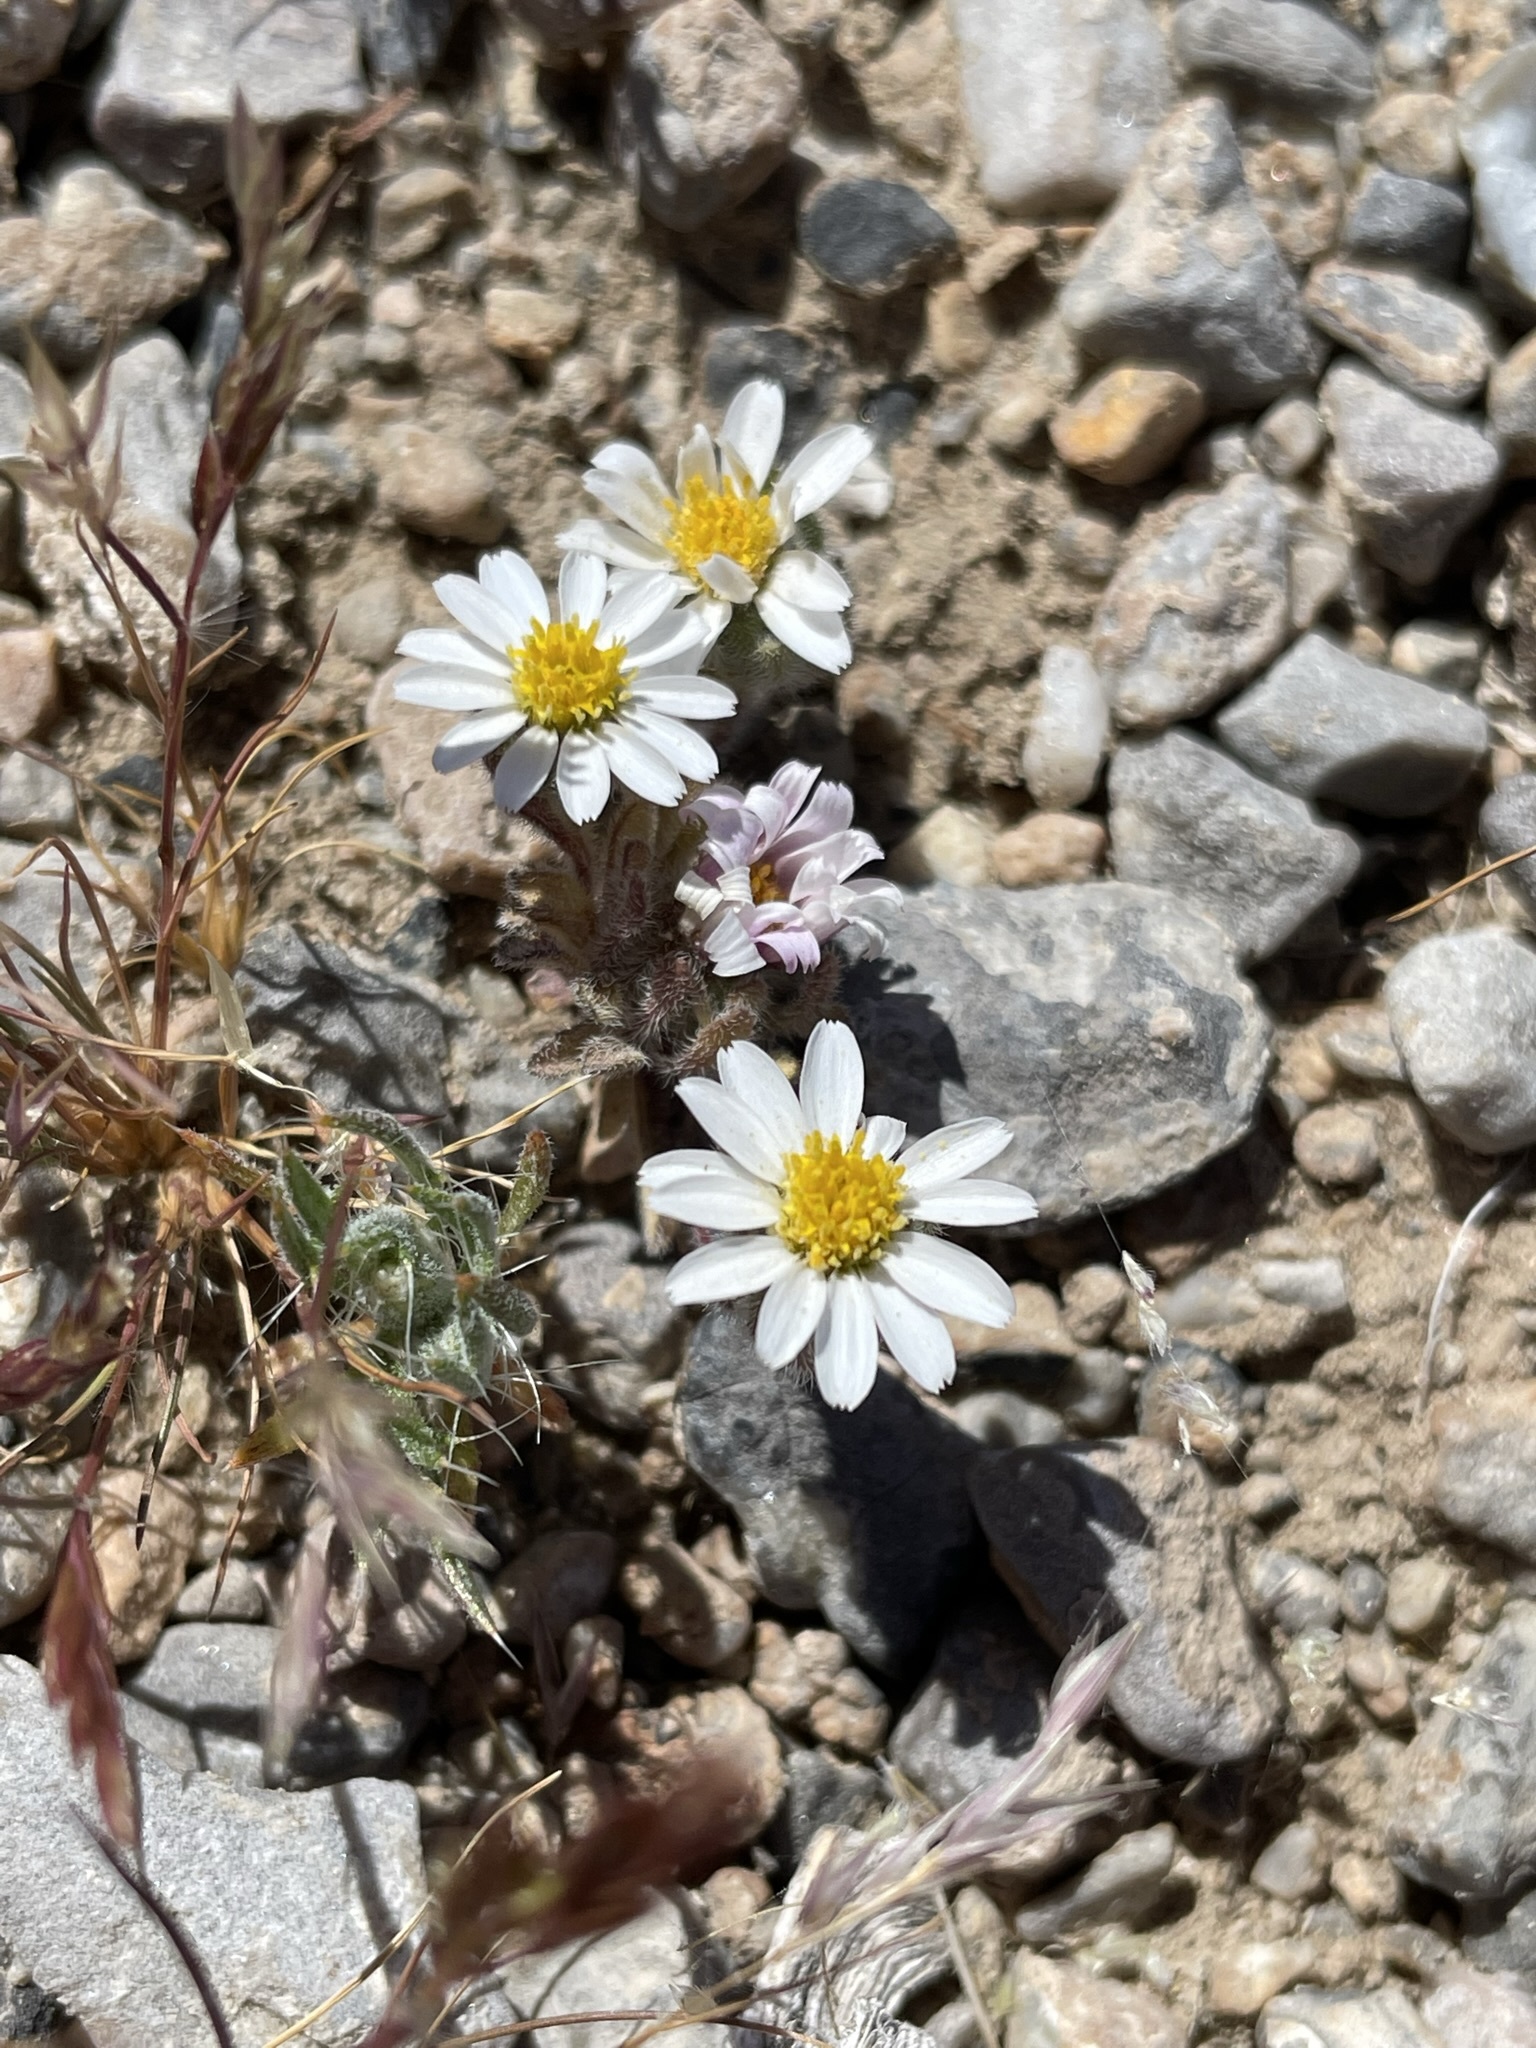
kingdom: Plantae
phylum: Tracheophyta
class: Magnoliopsida
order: Asterales
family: Asteraceae
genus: Monoptilon
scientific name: Monoptilon bellioides
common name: Bristly desertstar
